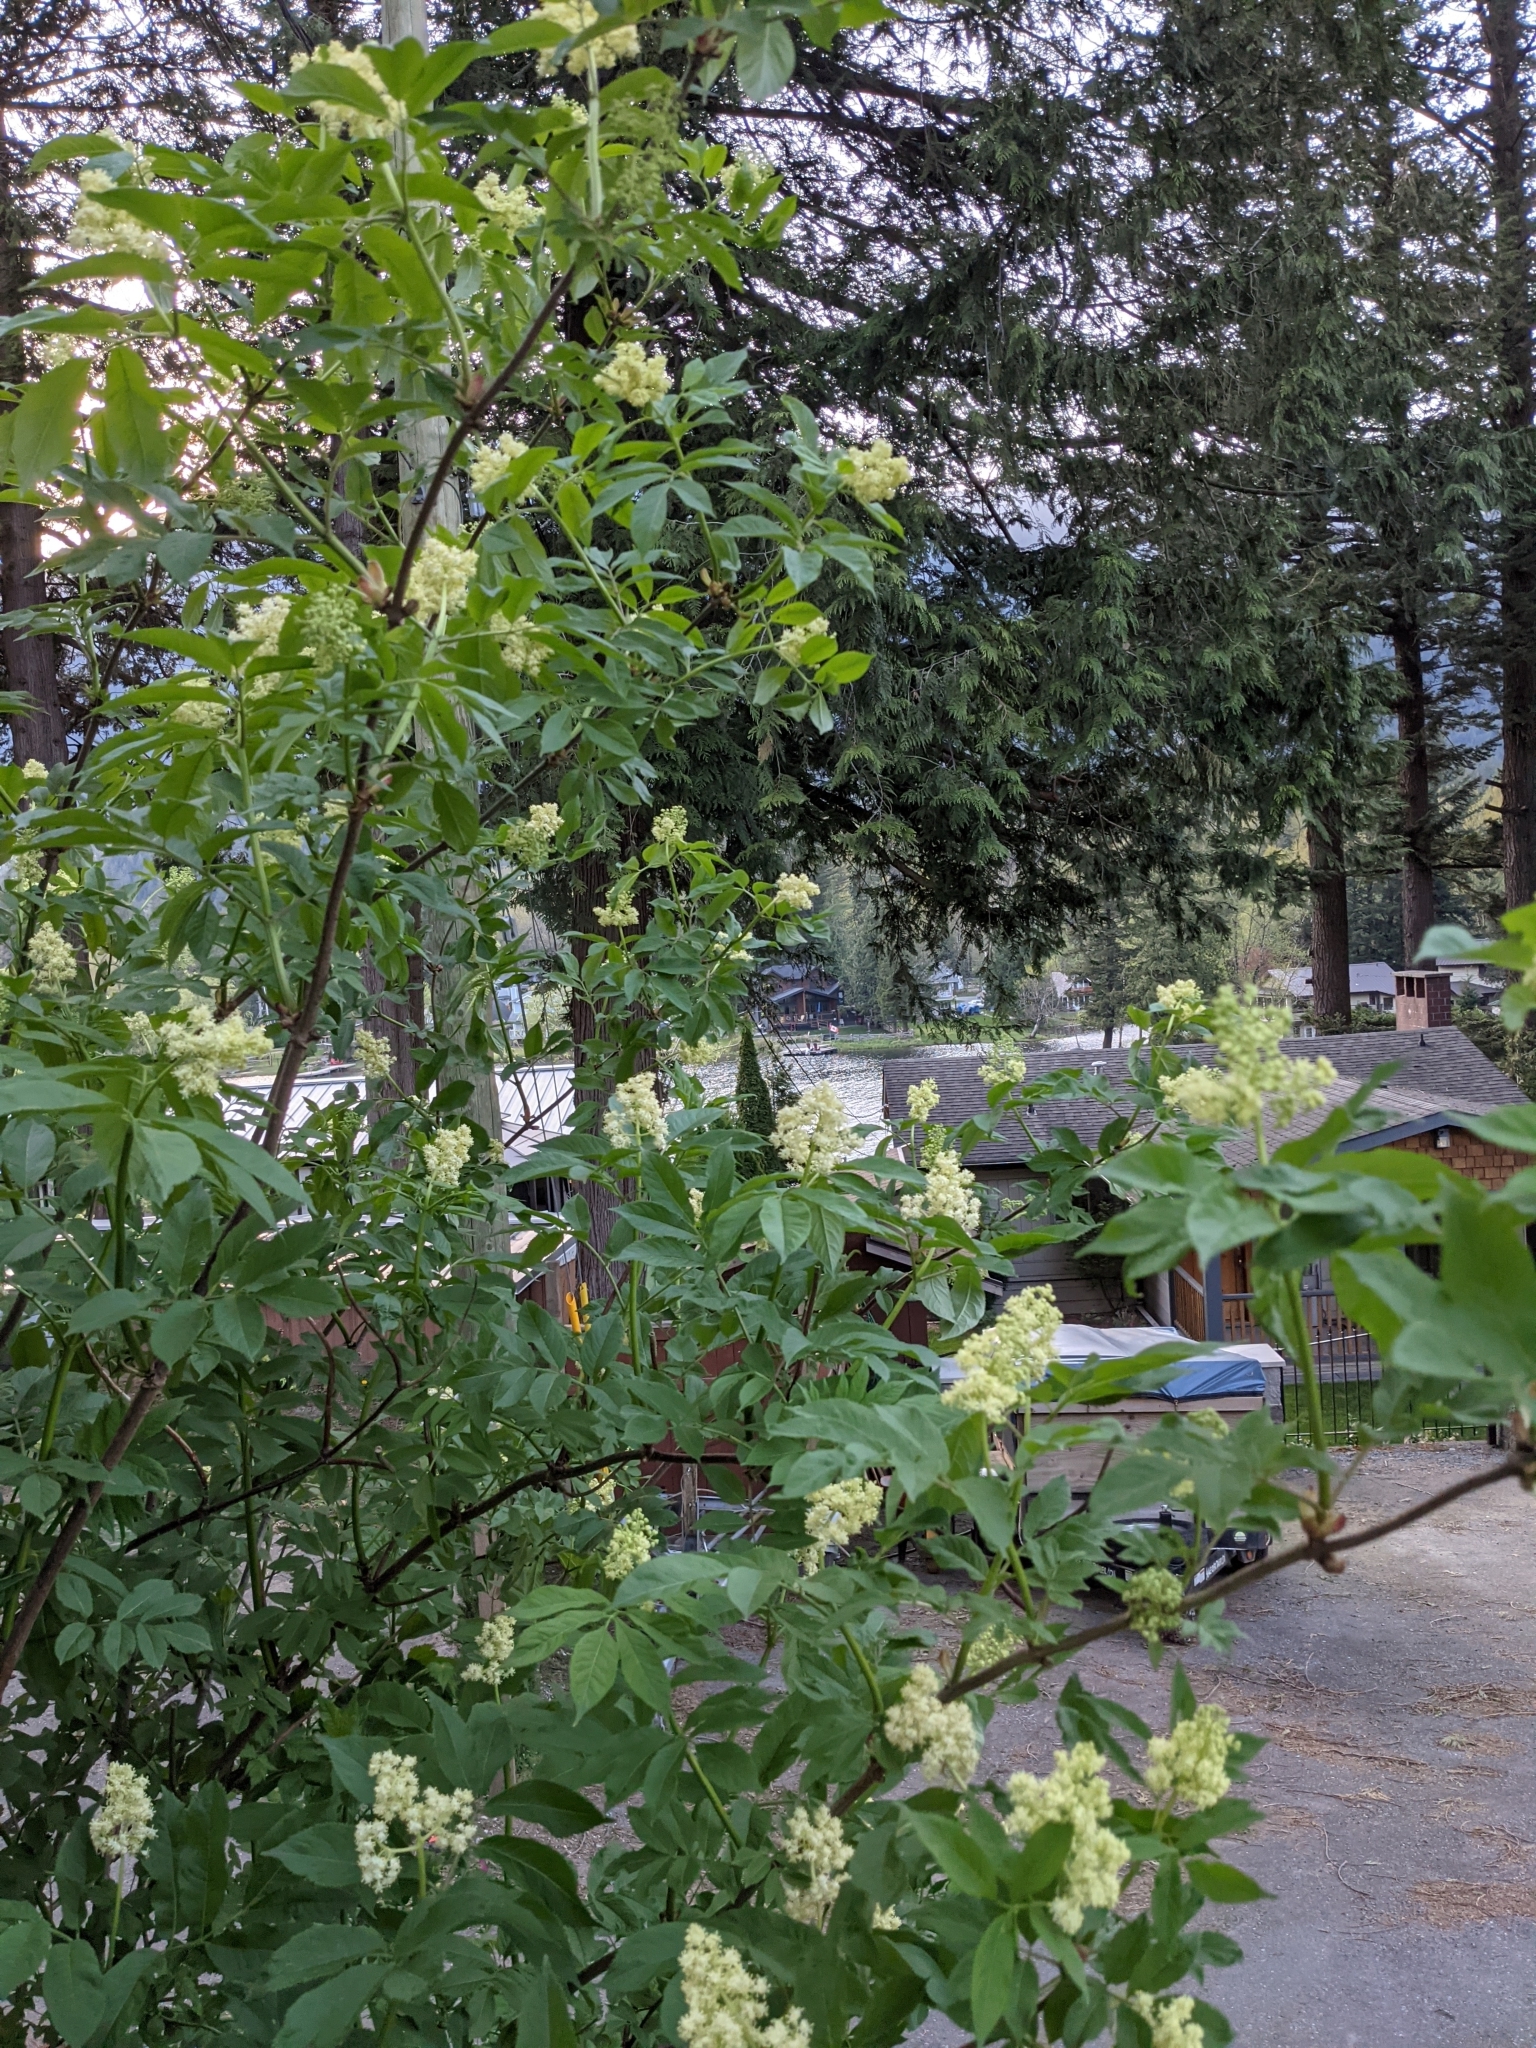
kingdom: Plantae
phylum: Tracheophyta
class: Magnoliopsida
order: Dipsacales
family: Viburnaceae
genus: Sambucus
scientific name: Sambucus racemosa
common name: Red-berried elder
